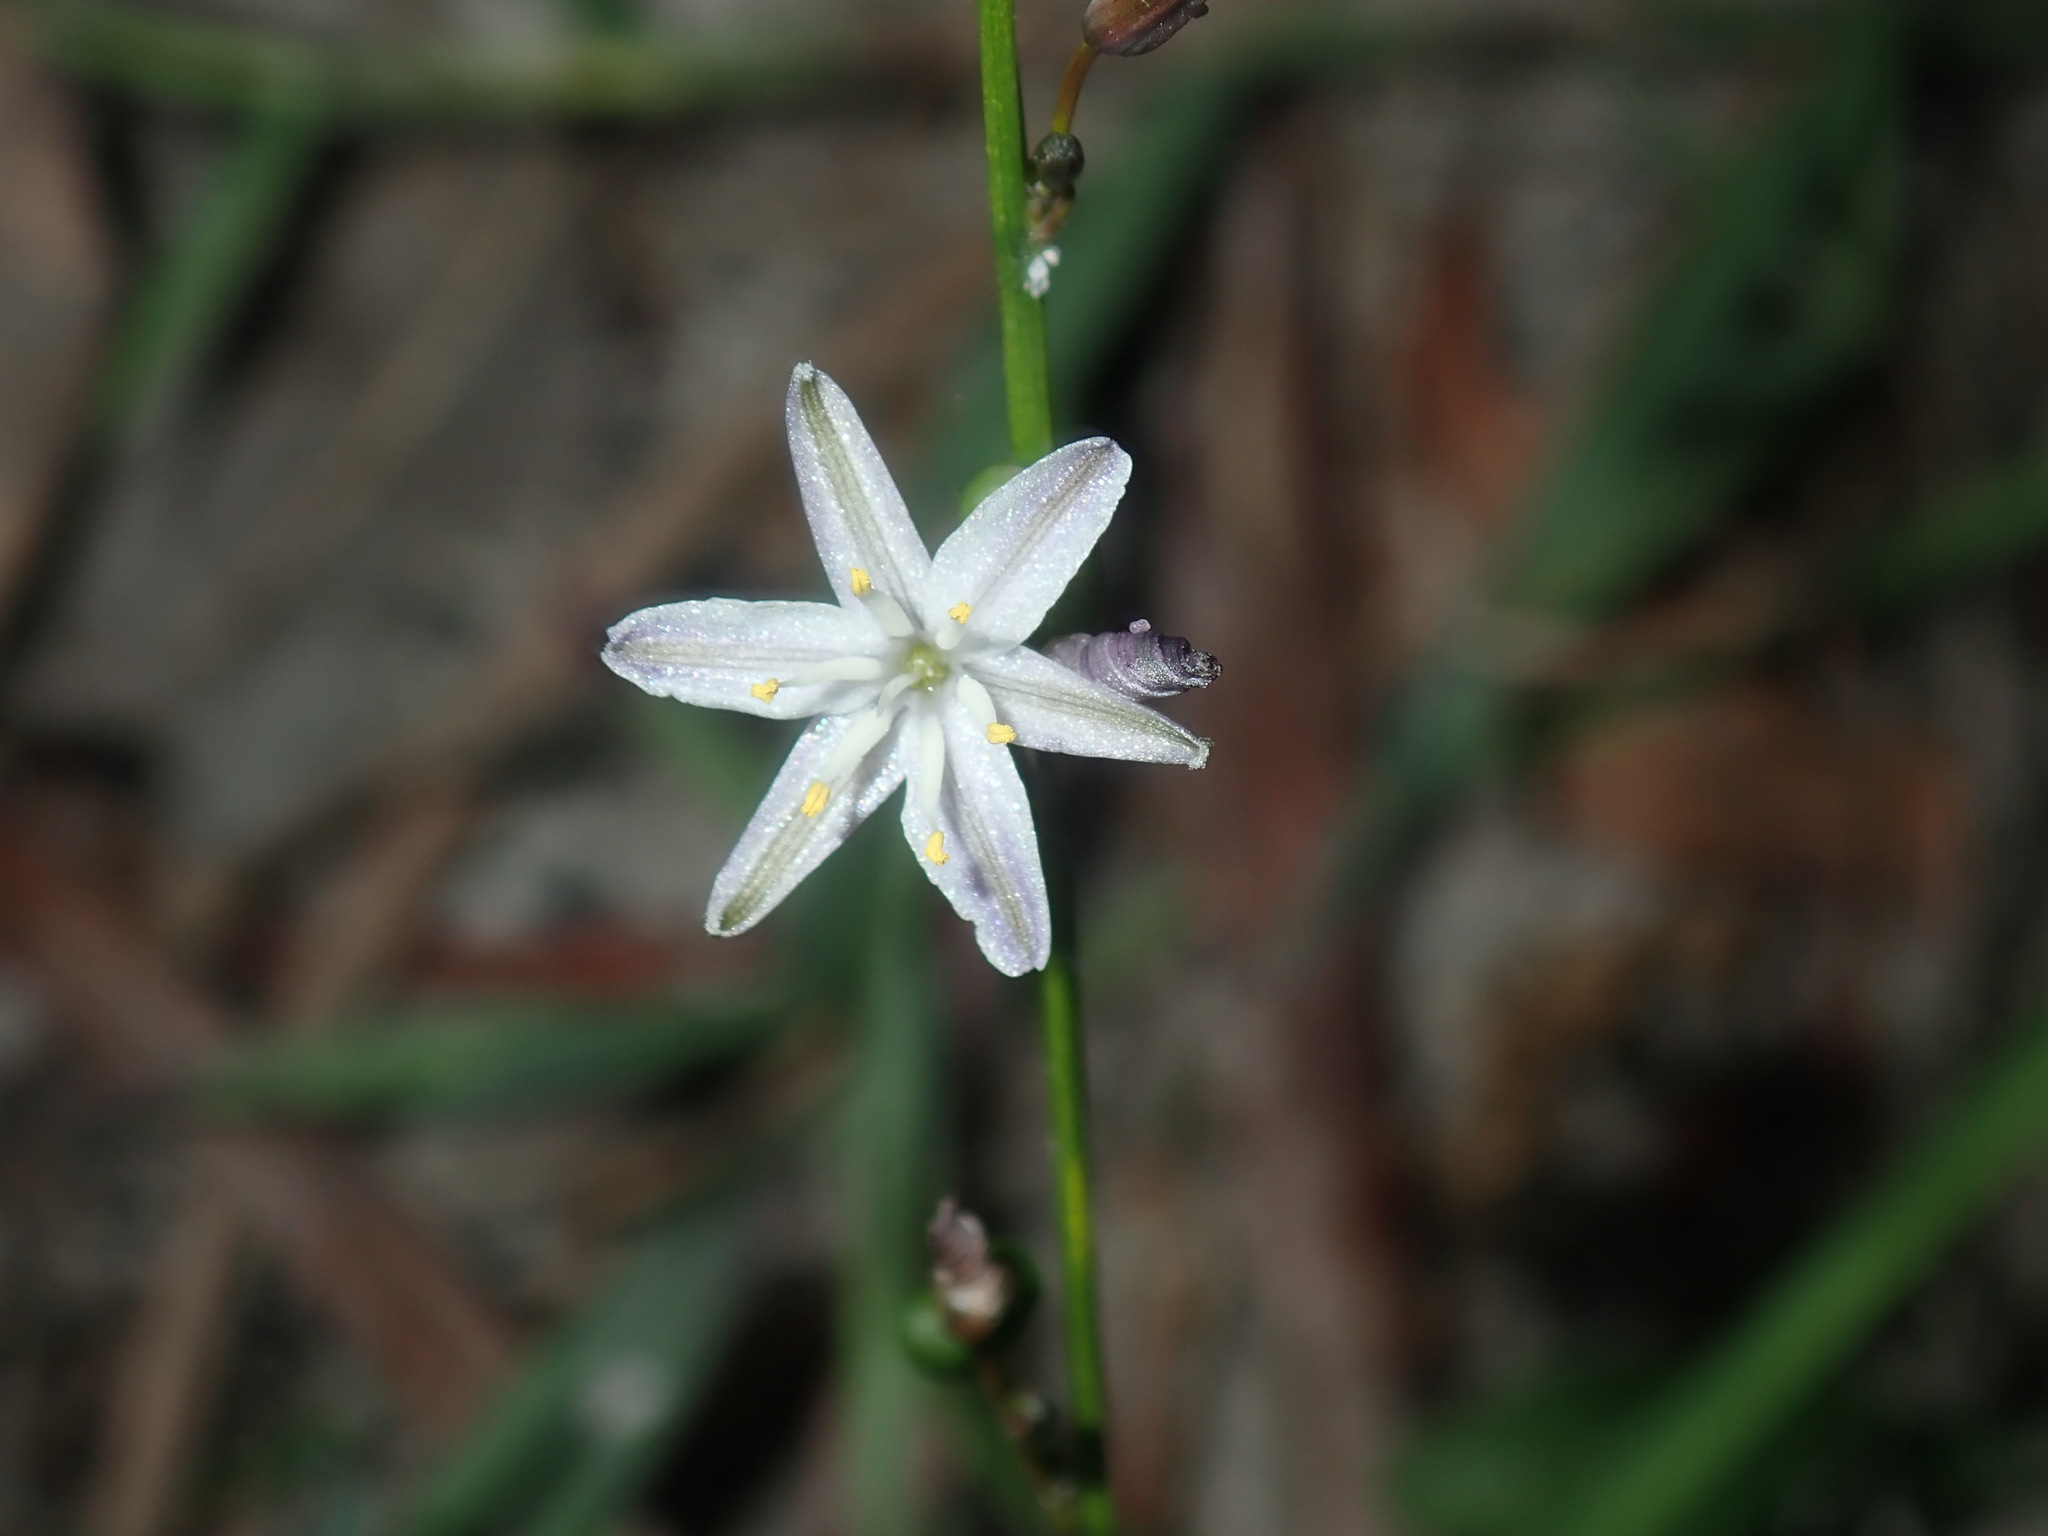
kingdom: Plantae
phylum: Tracheophyta
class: Liliopsida
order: Asparagales
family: Asphodelaceae
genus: Caesia
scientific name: Caesia parviflora
